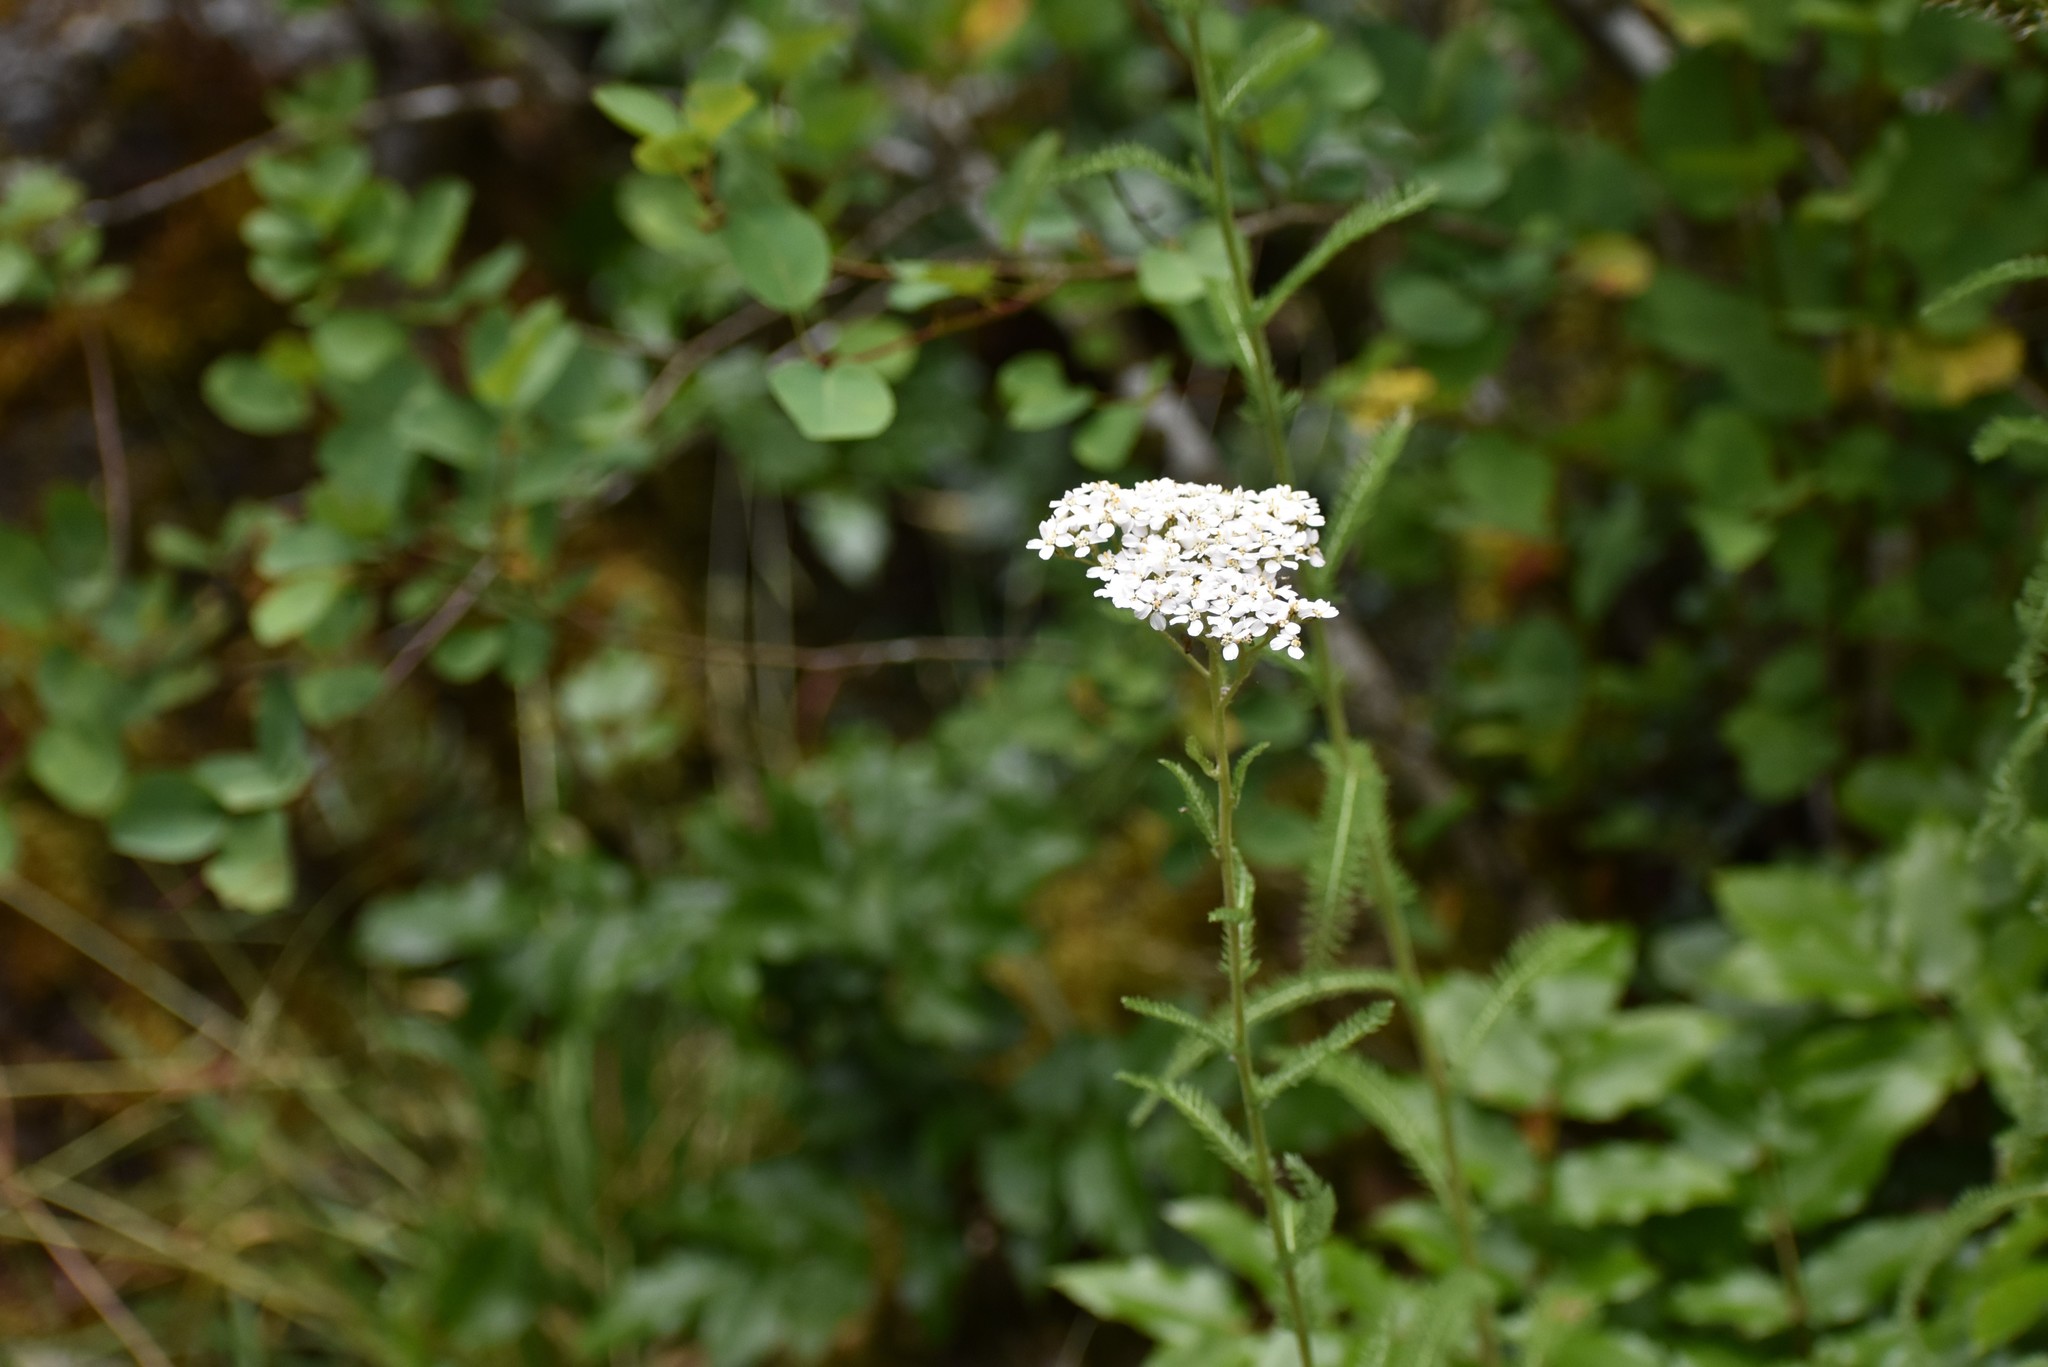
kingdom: Plantae
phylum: Tracheophyta
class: Magnoliopsida
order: Asterales
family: Asteraceae
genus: Achillea
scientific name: Achillea millefolium
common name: Yarrow
